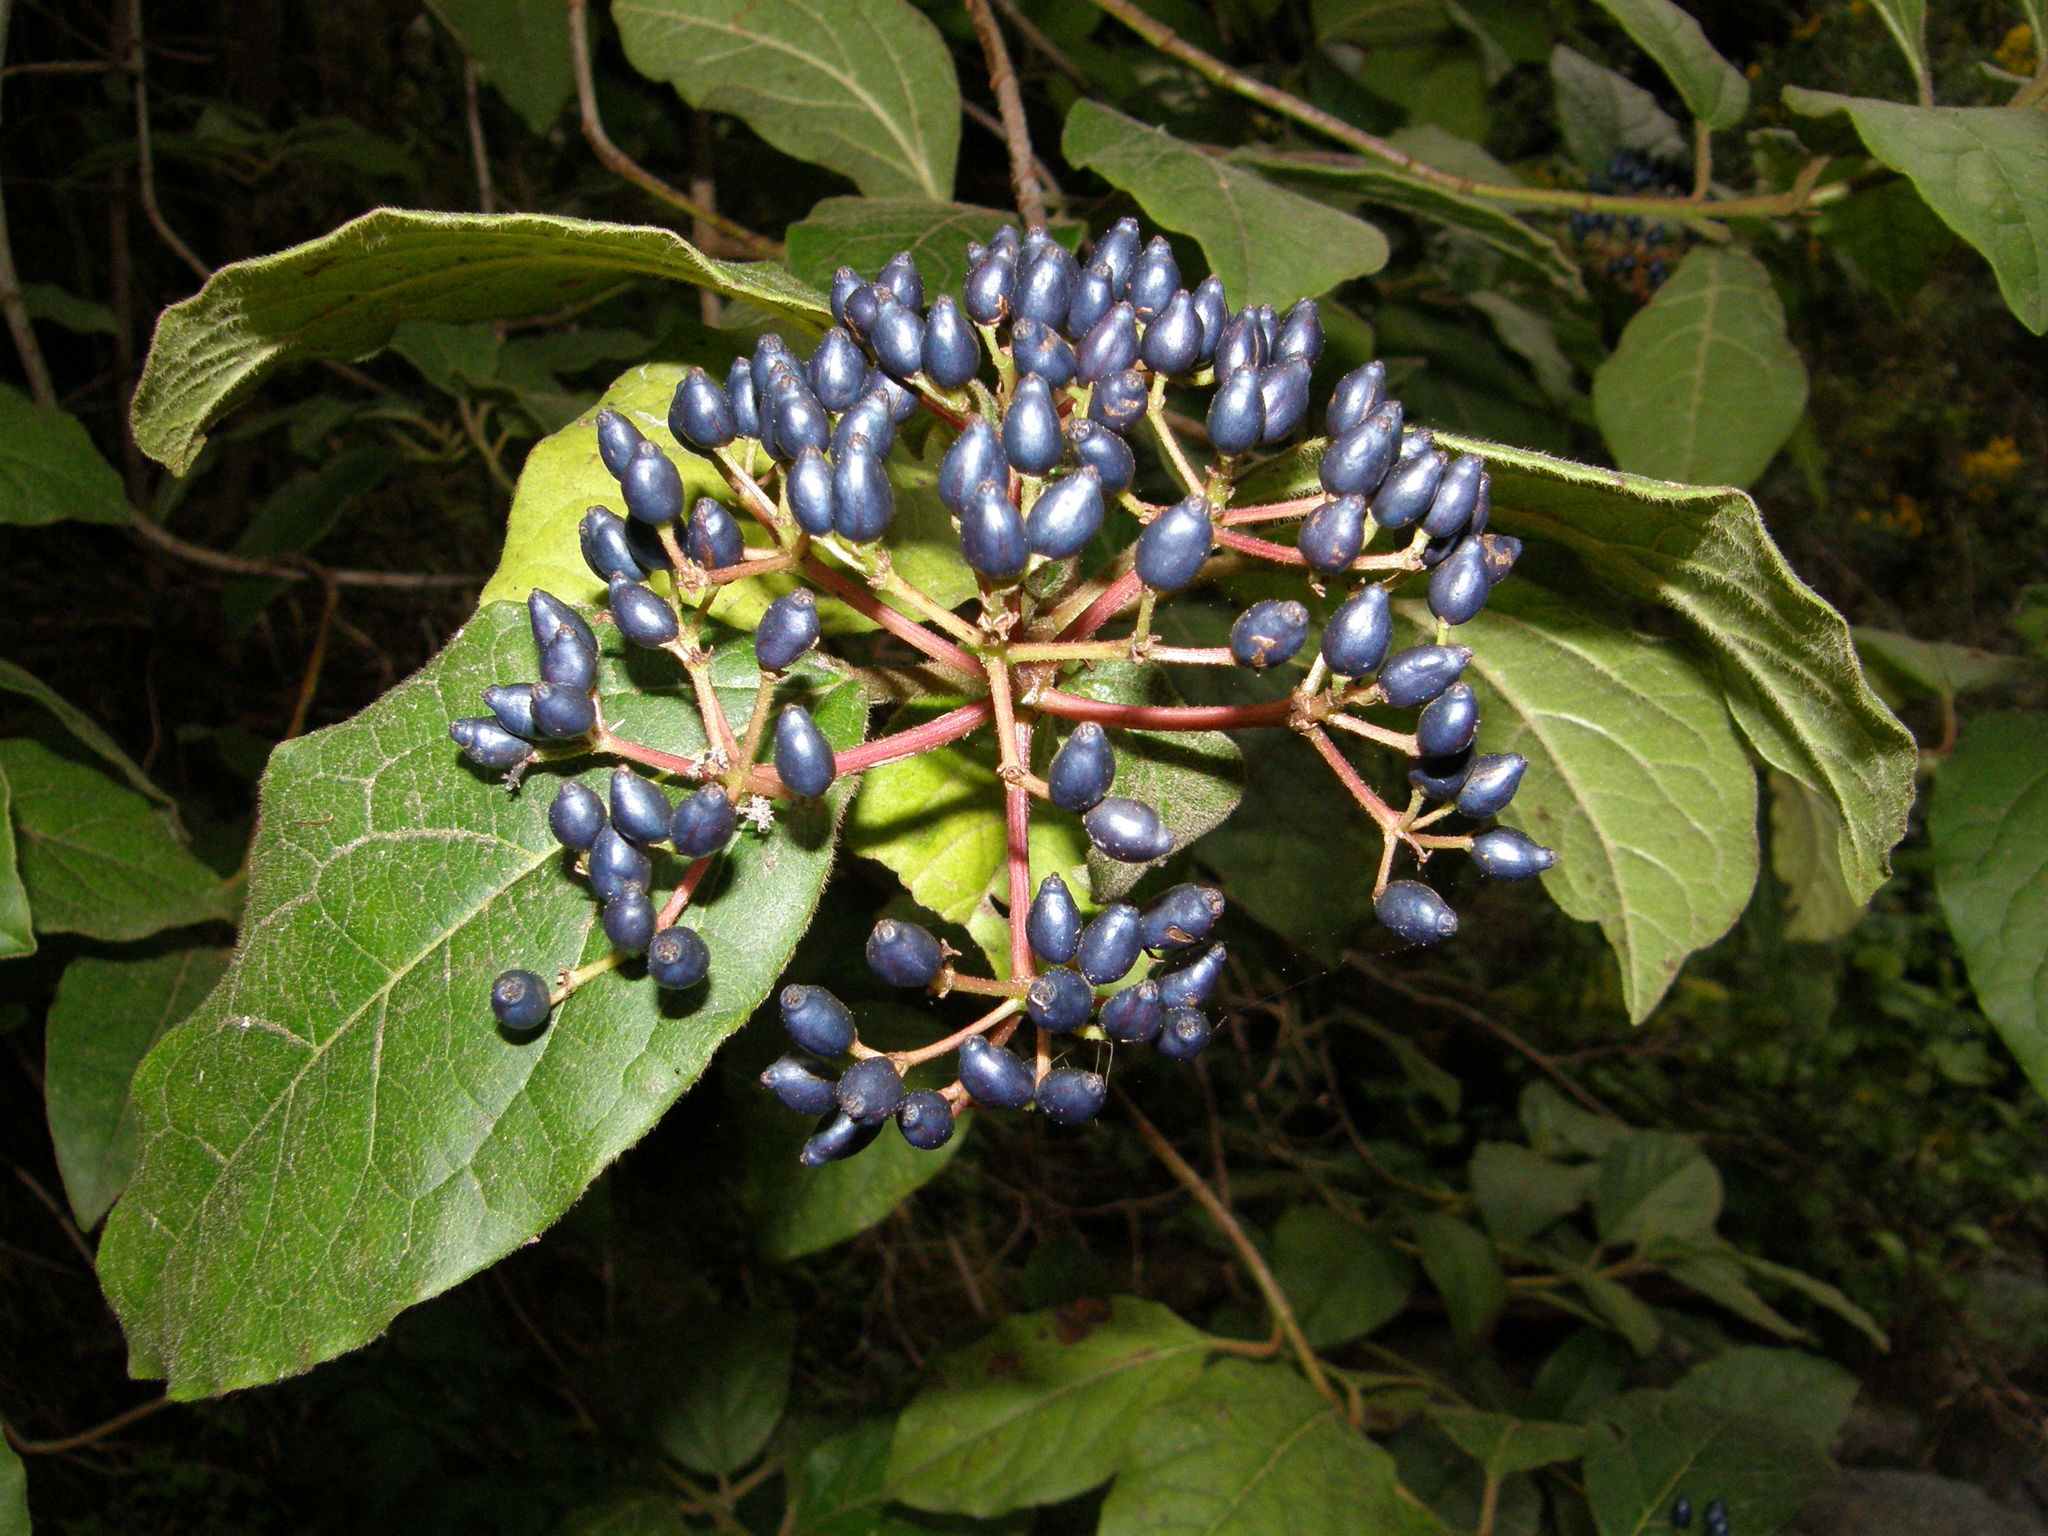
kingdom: Plantae
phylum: Tracheophyta
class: Magnoliopsida
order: Dipsacales
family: Viburnaceae
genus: Viburnum
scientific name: Viburnum rugosum
